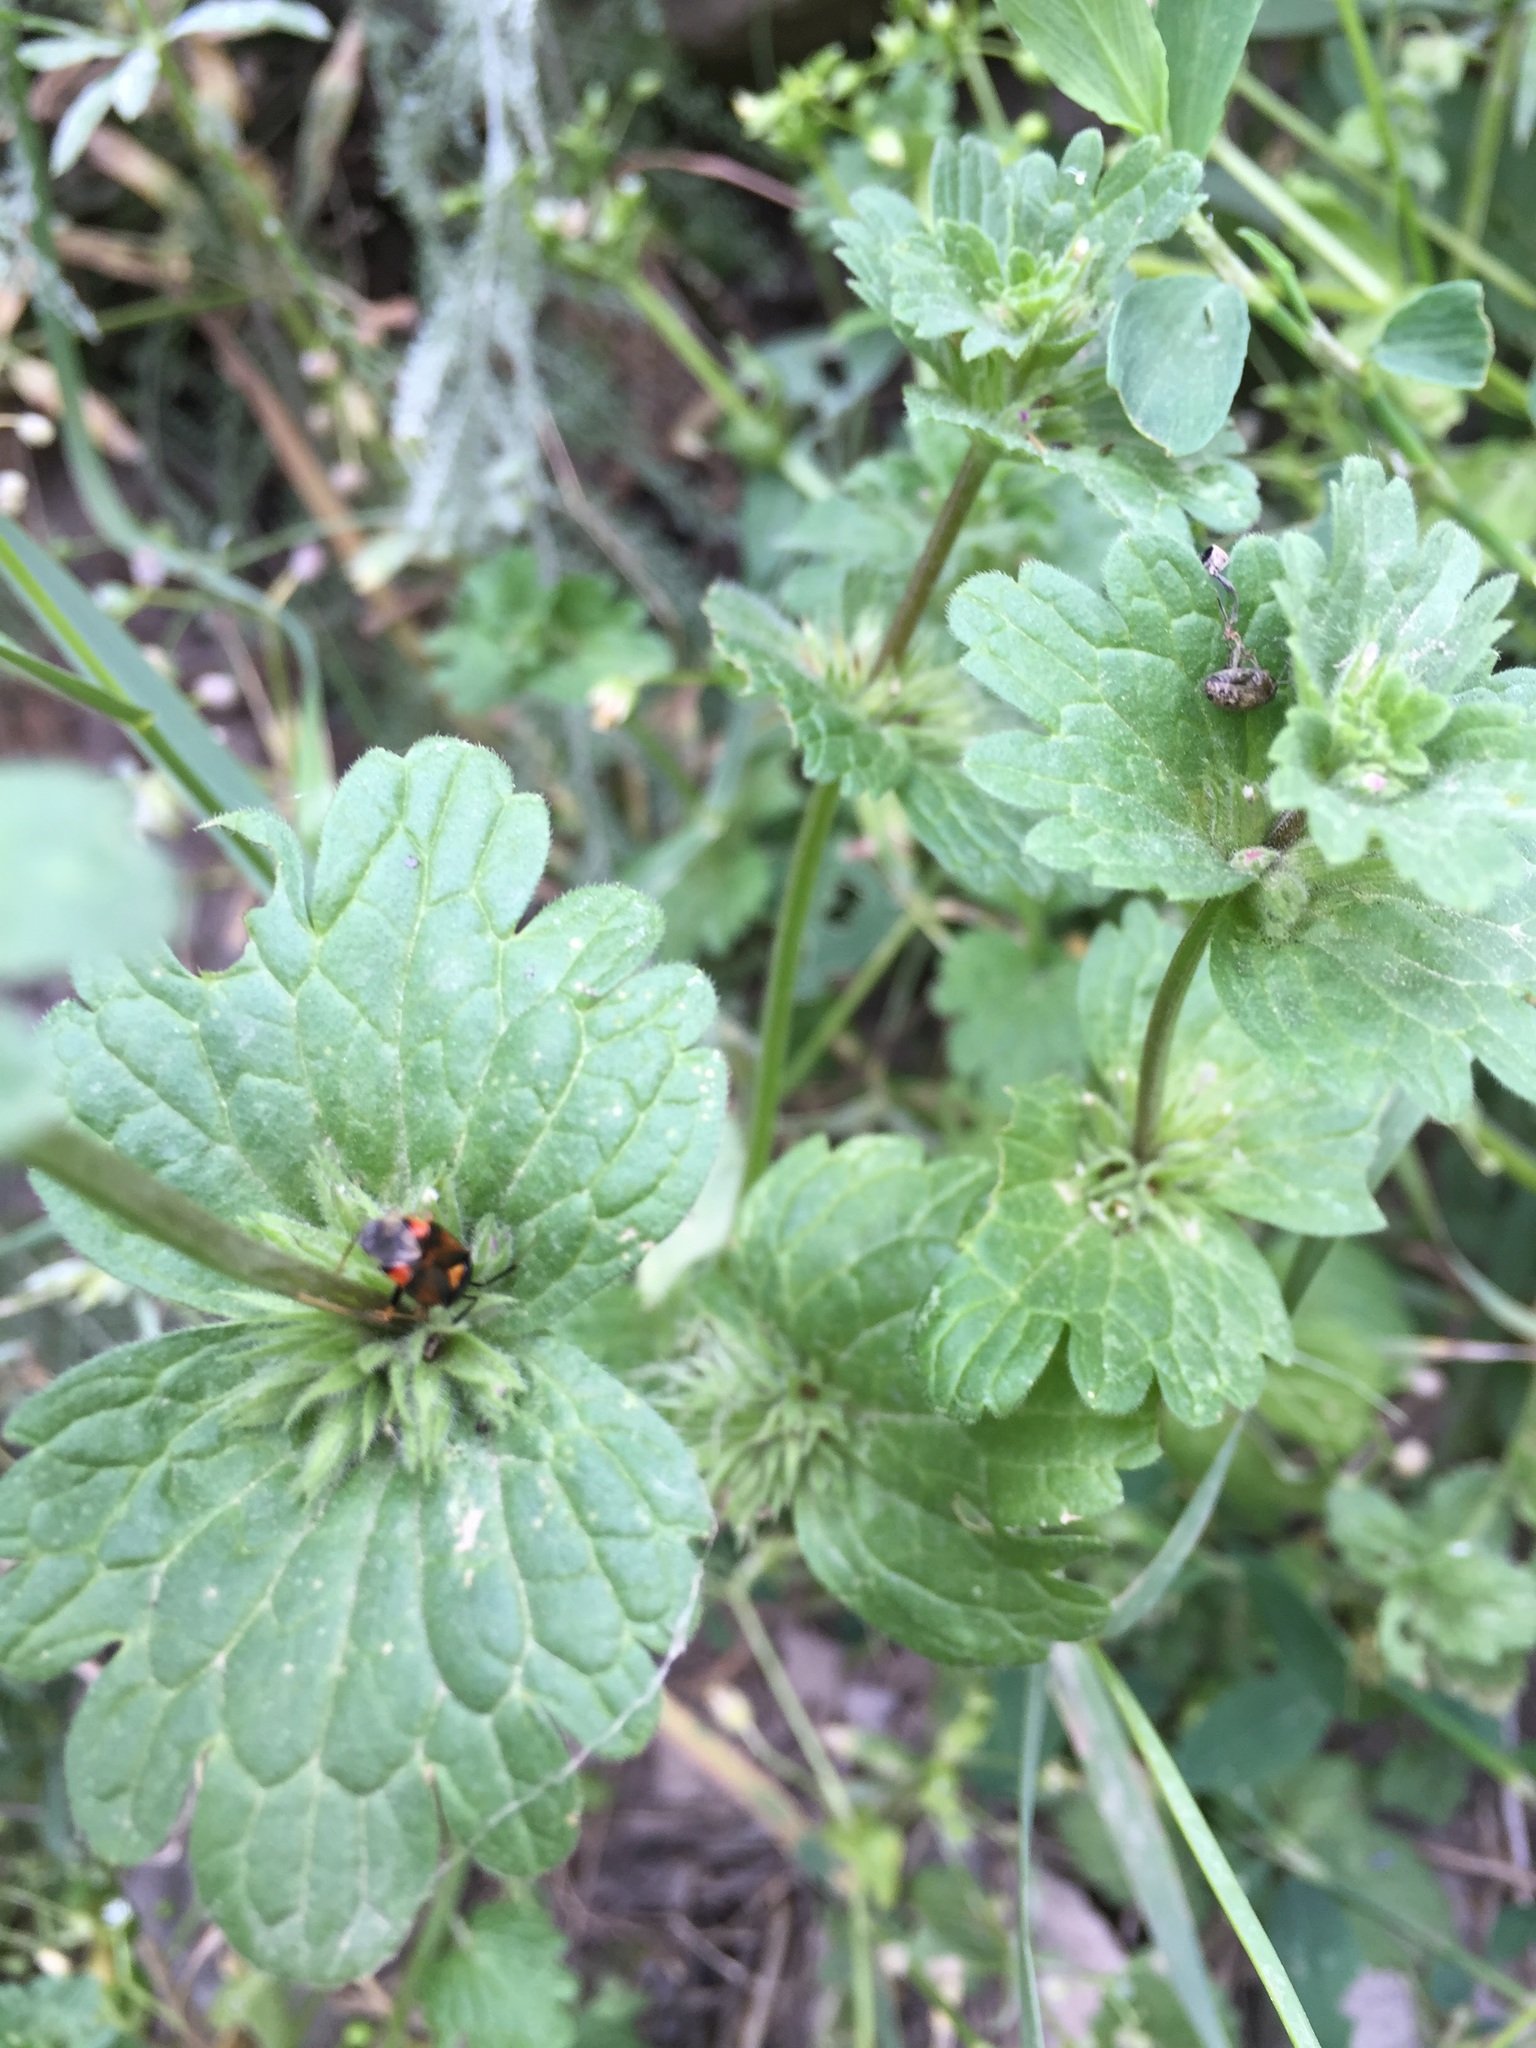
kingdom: Plantae
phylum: Tracheophyta
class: Magnoliopsida
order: Lamiales
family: Lamiaceae
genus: Lamium
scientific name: Lamium amplexicaule
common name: Henbit dead-nettle
